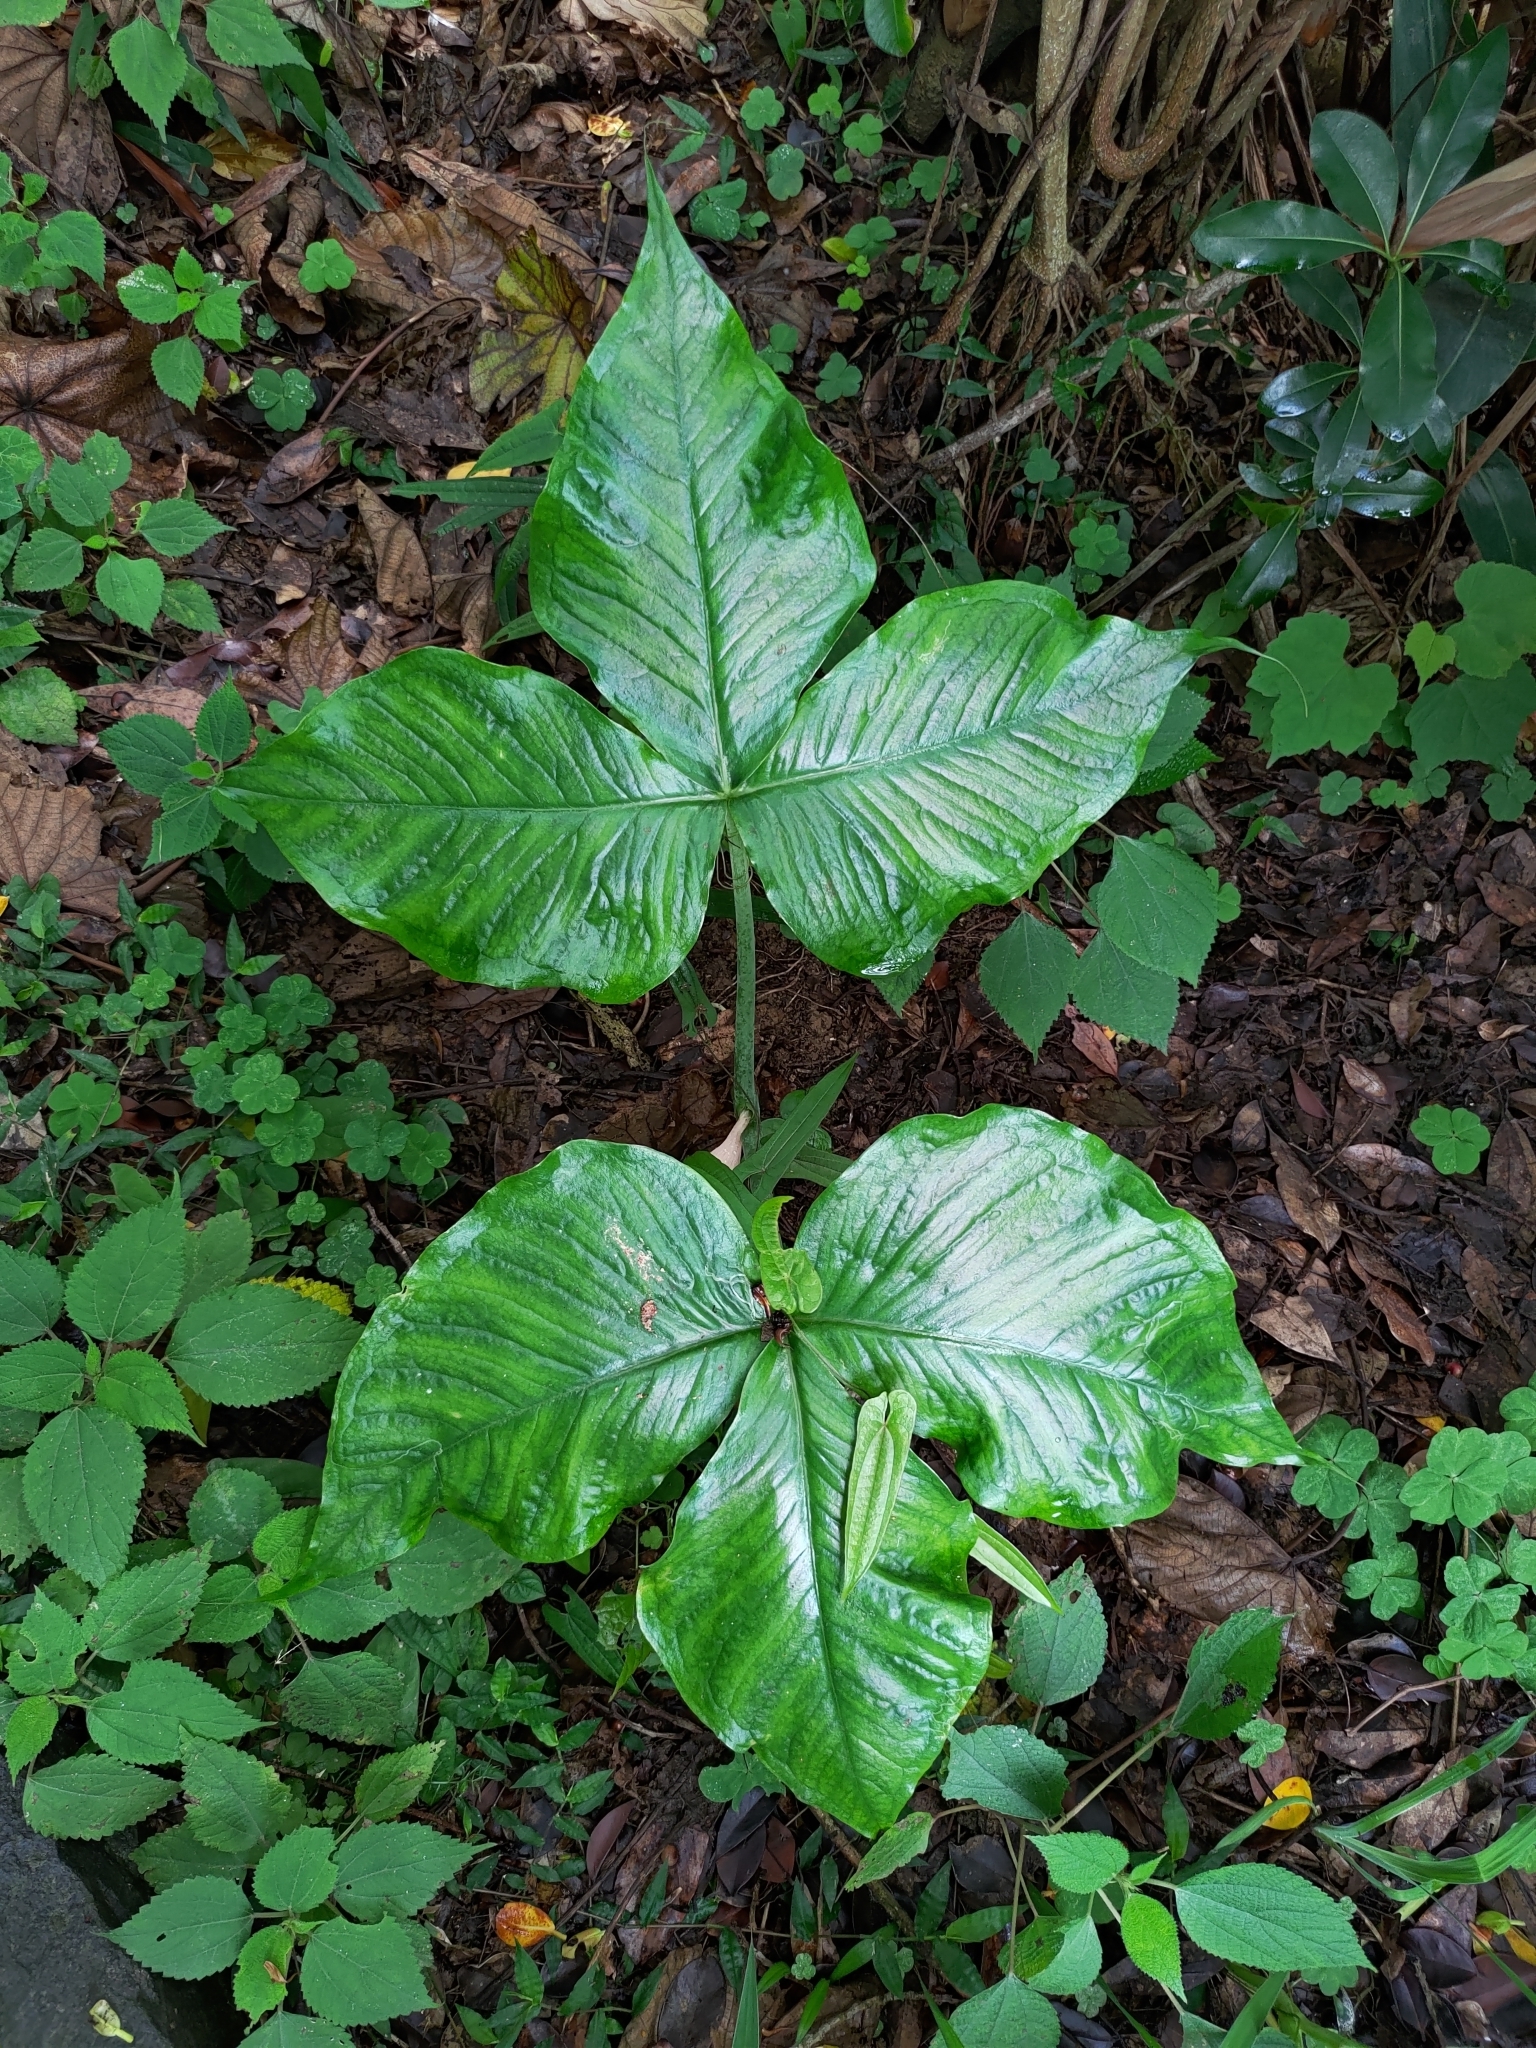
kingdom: Plantae
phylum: Tracheophyta
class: Liliopsida
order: Alismatales
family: Araceae
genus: Arisaema
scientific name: Arisaema ringens
